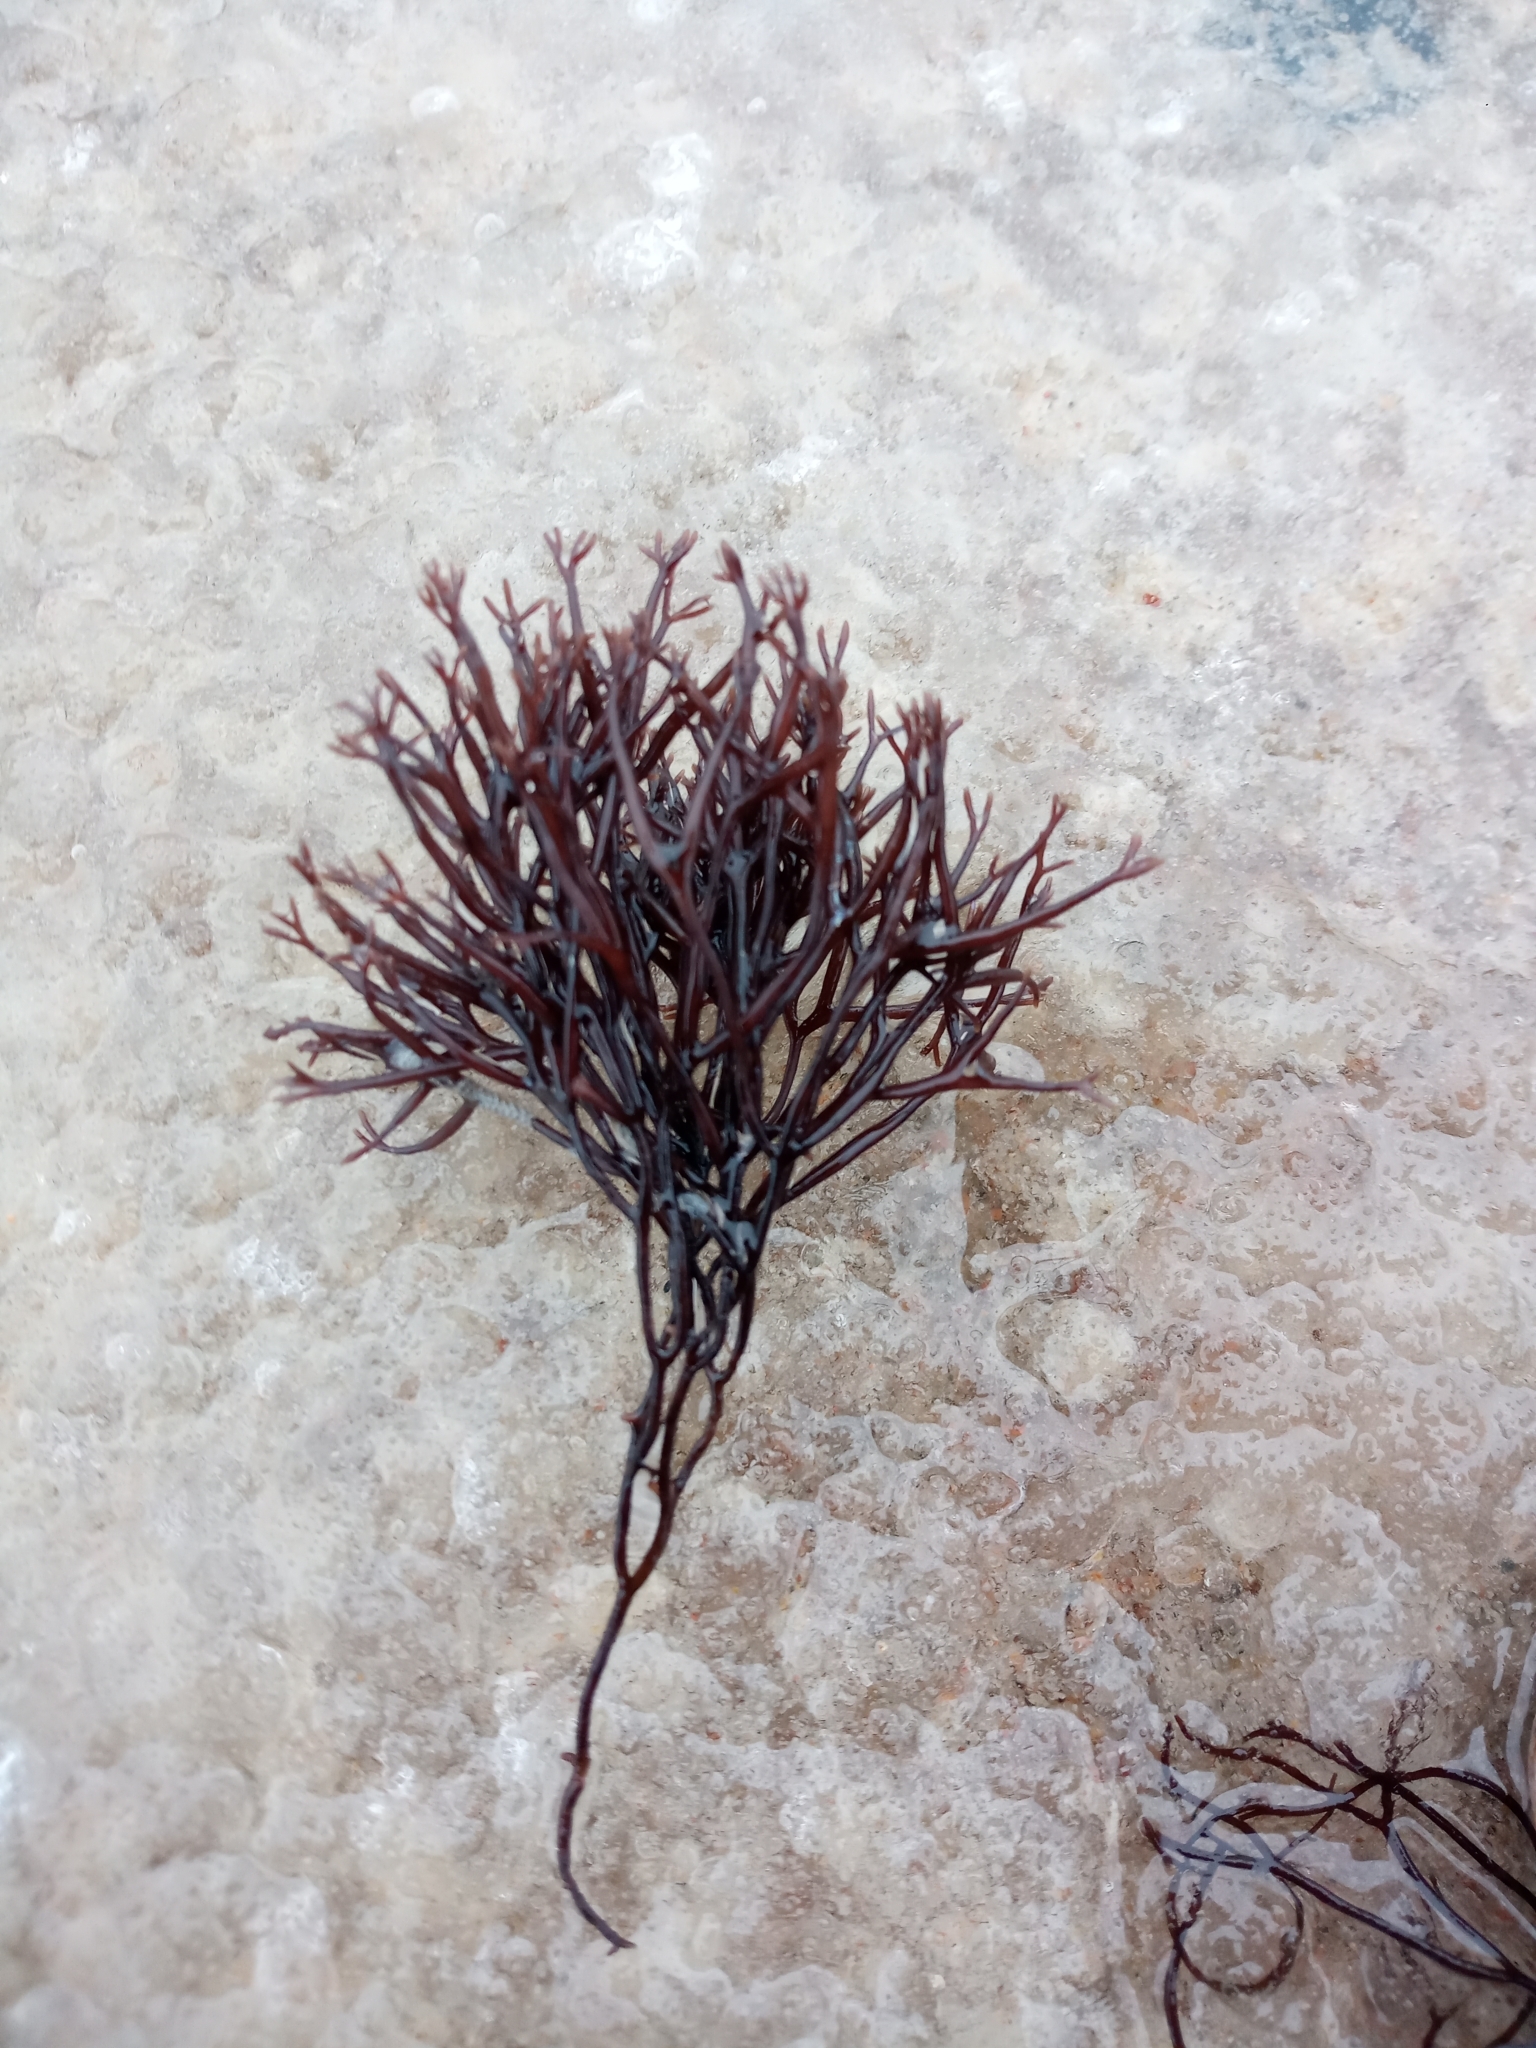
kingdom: Plantae
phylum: Rhodophyta
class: Florideophyceae
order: Gigartinales
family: Furcellariaceae
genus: Furcellaria
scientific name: Furcellaria lumbricalis
